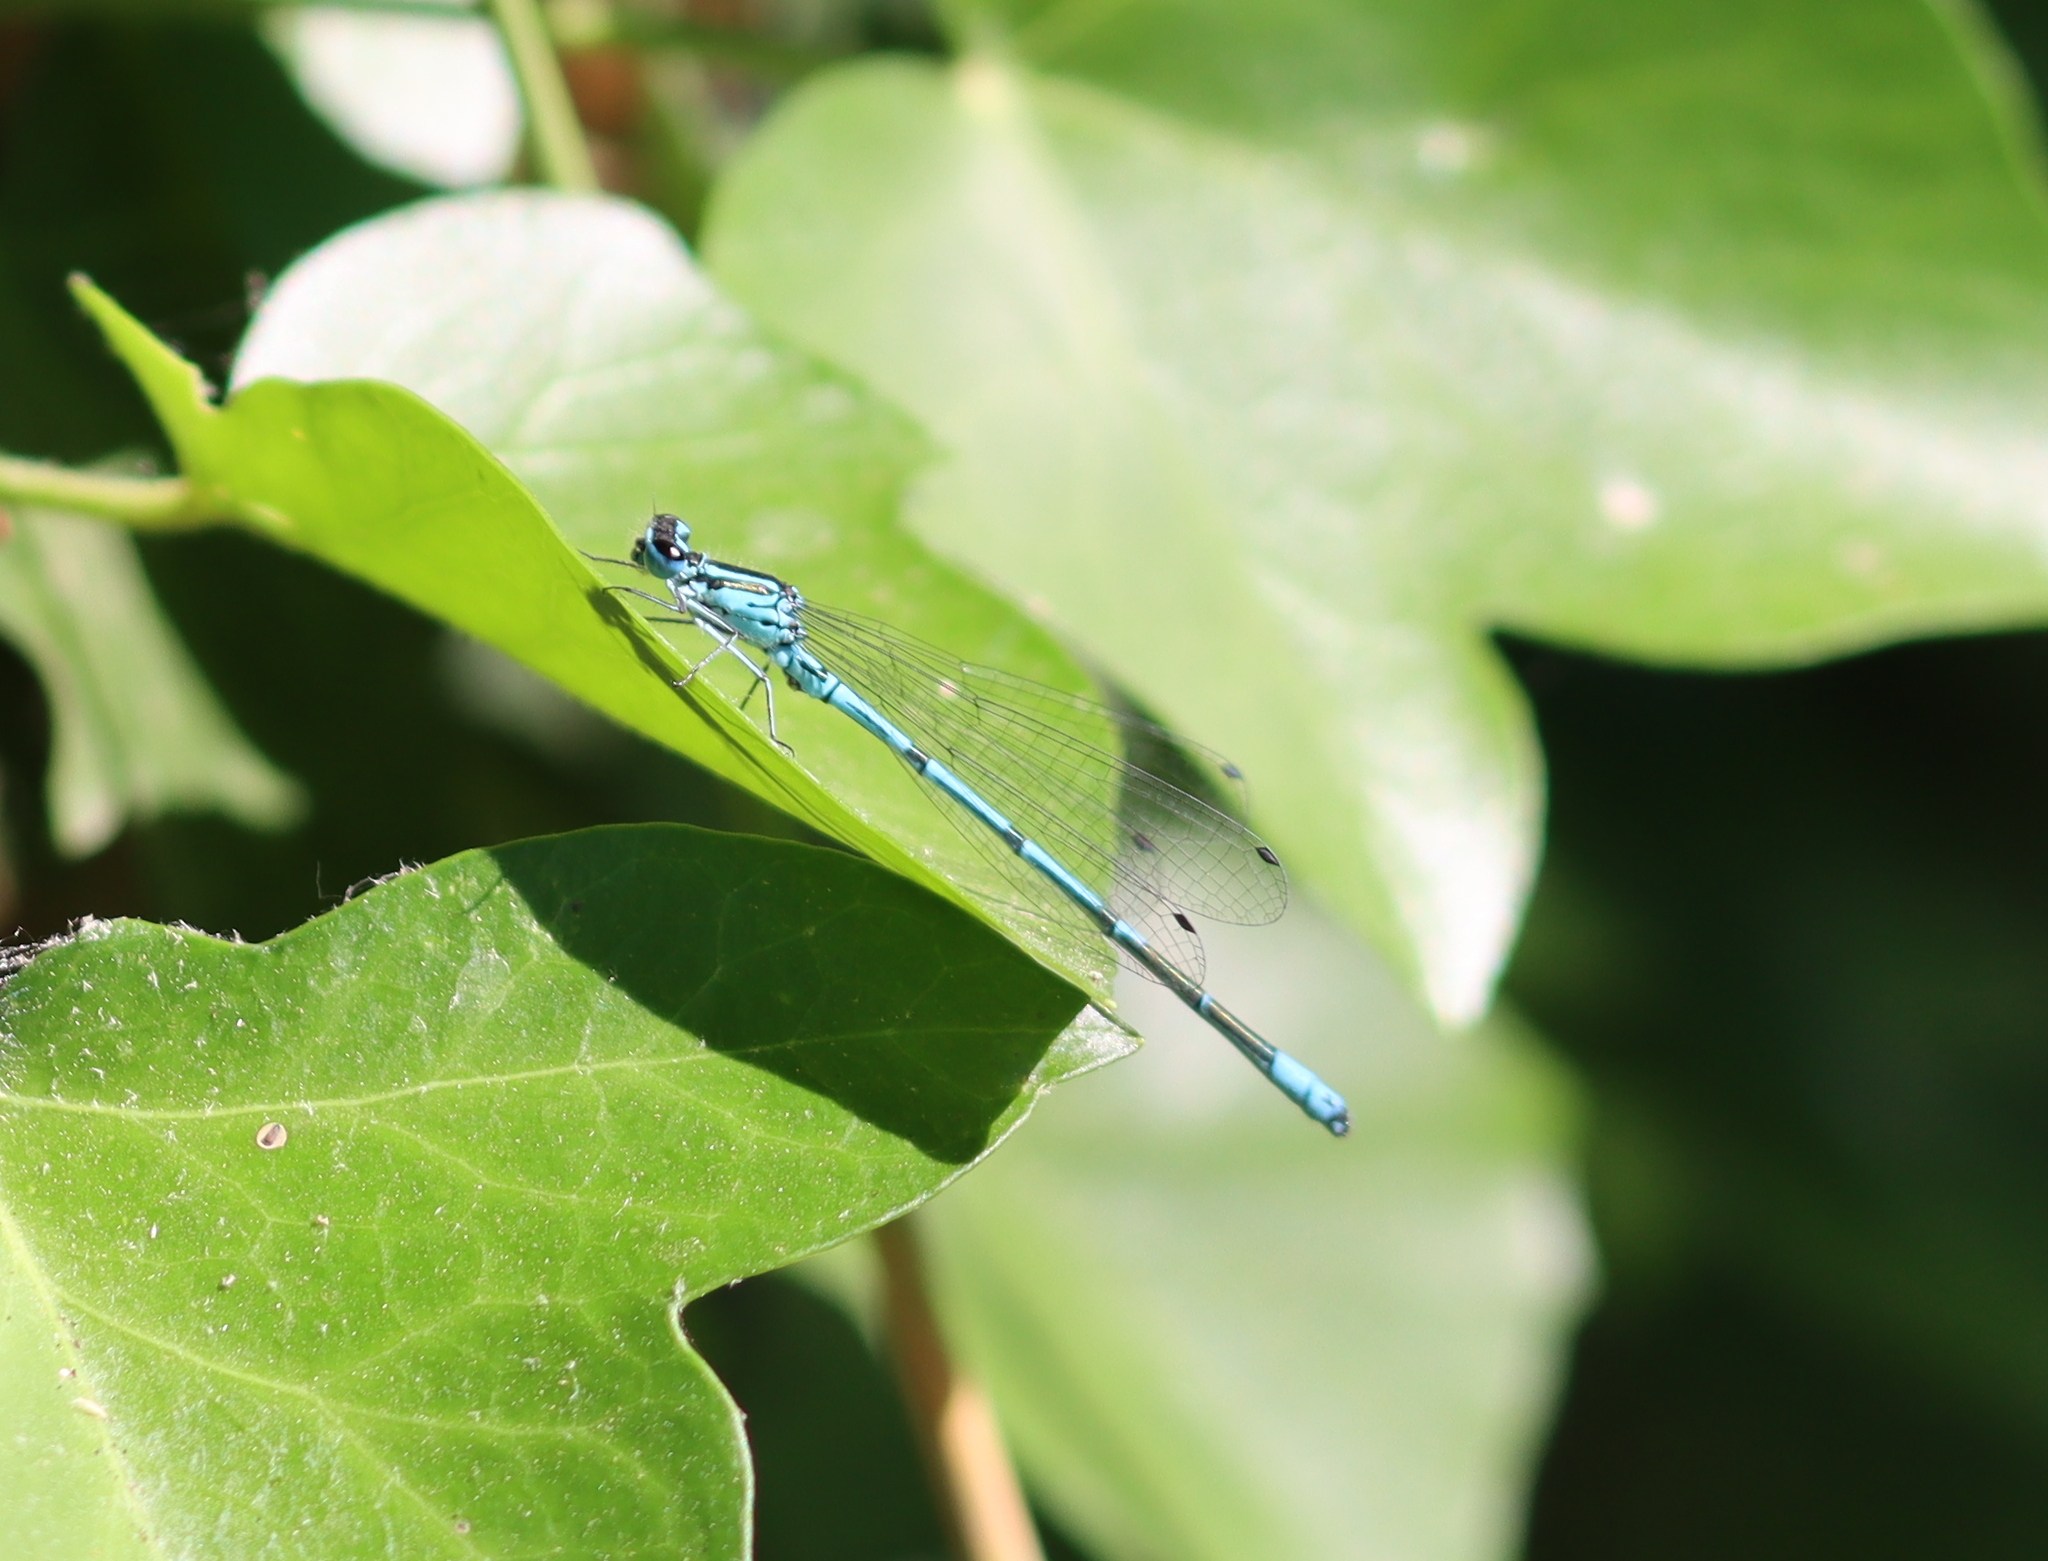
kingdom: Animalia
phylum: Arthropoda
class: Insecta
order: Odonata
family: Coenagrionidae
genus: Coenagrion
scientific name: Coenagrion puella
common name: Azure damselfly
